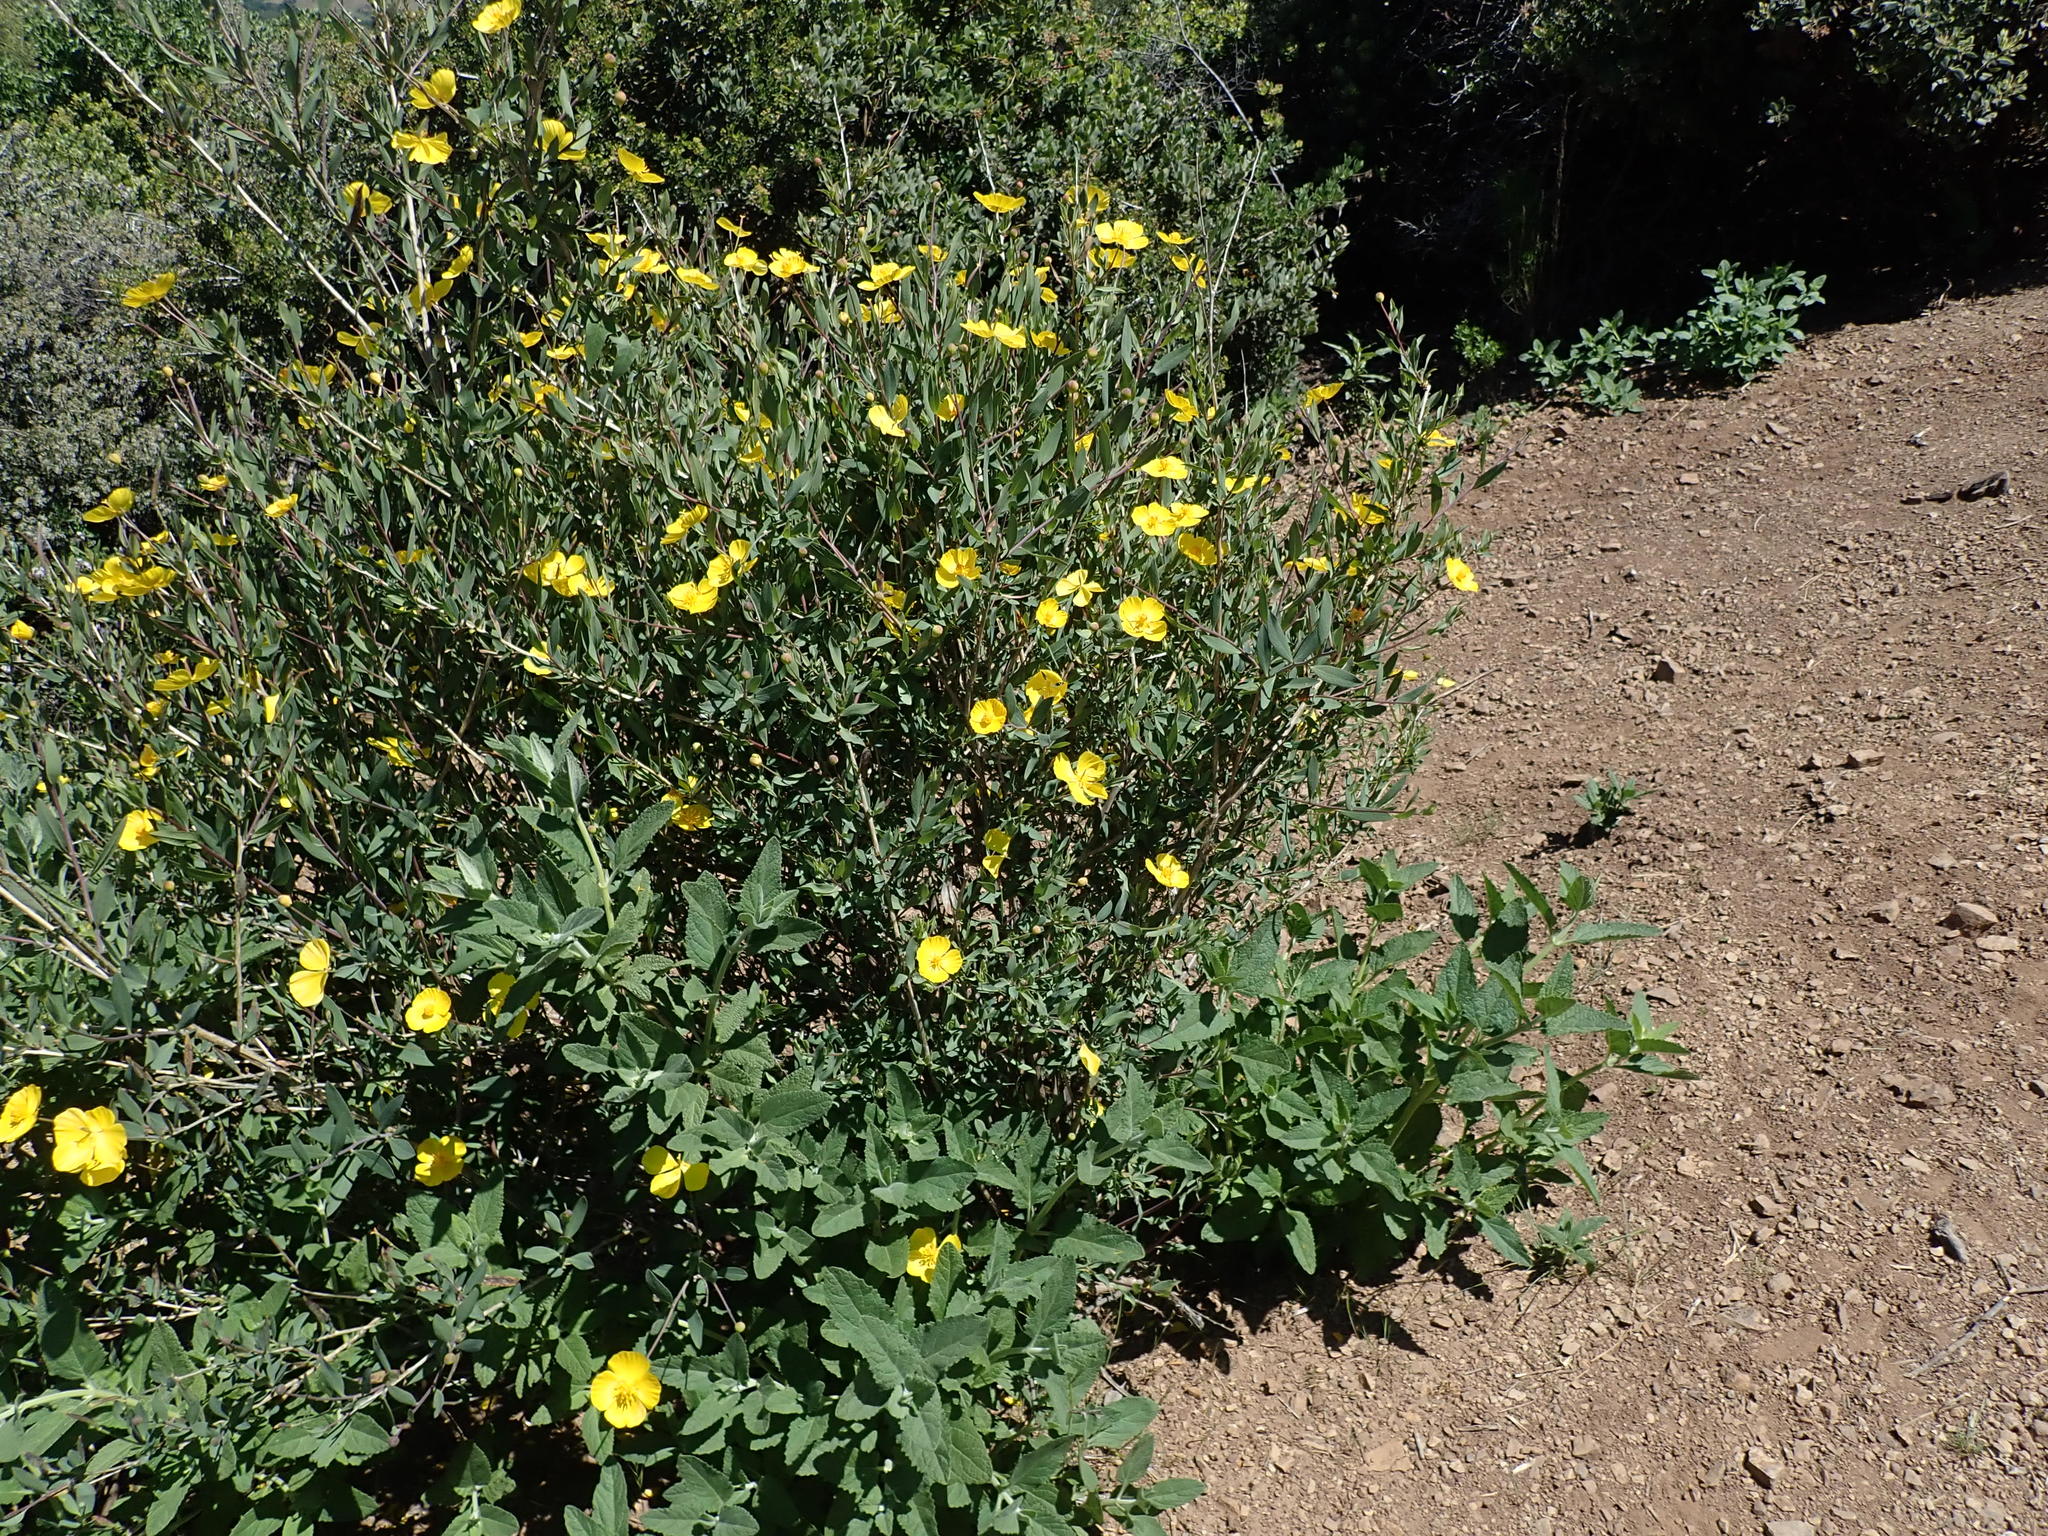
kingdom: Plantae
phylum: Tracheophyta
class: Magnoliopsida
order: Ranunculales
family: Papaveraceae
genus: Dendromecon
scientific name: Dendromecon rigida
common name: Tree poppy
